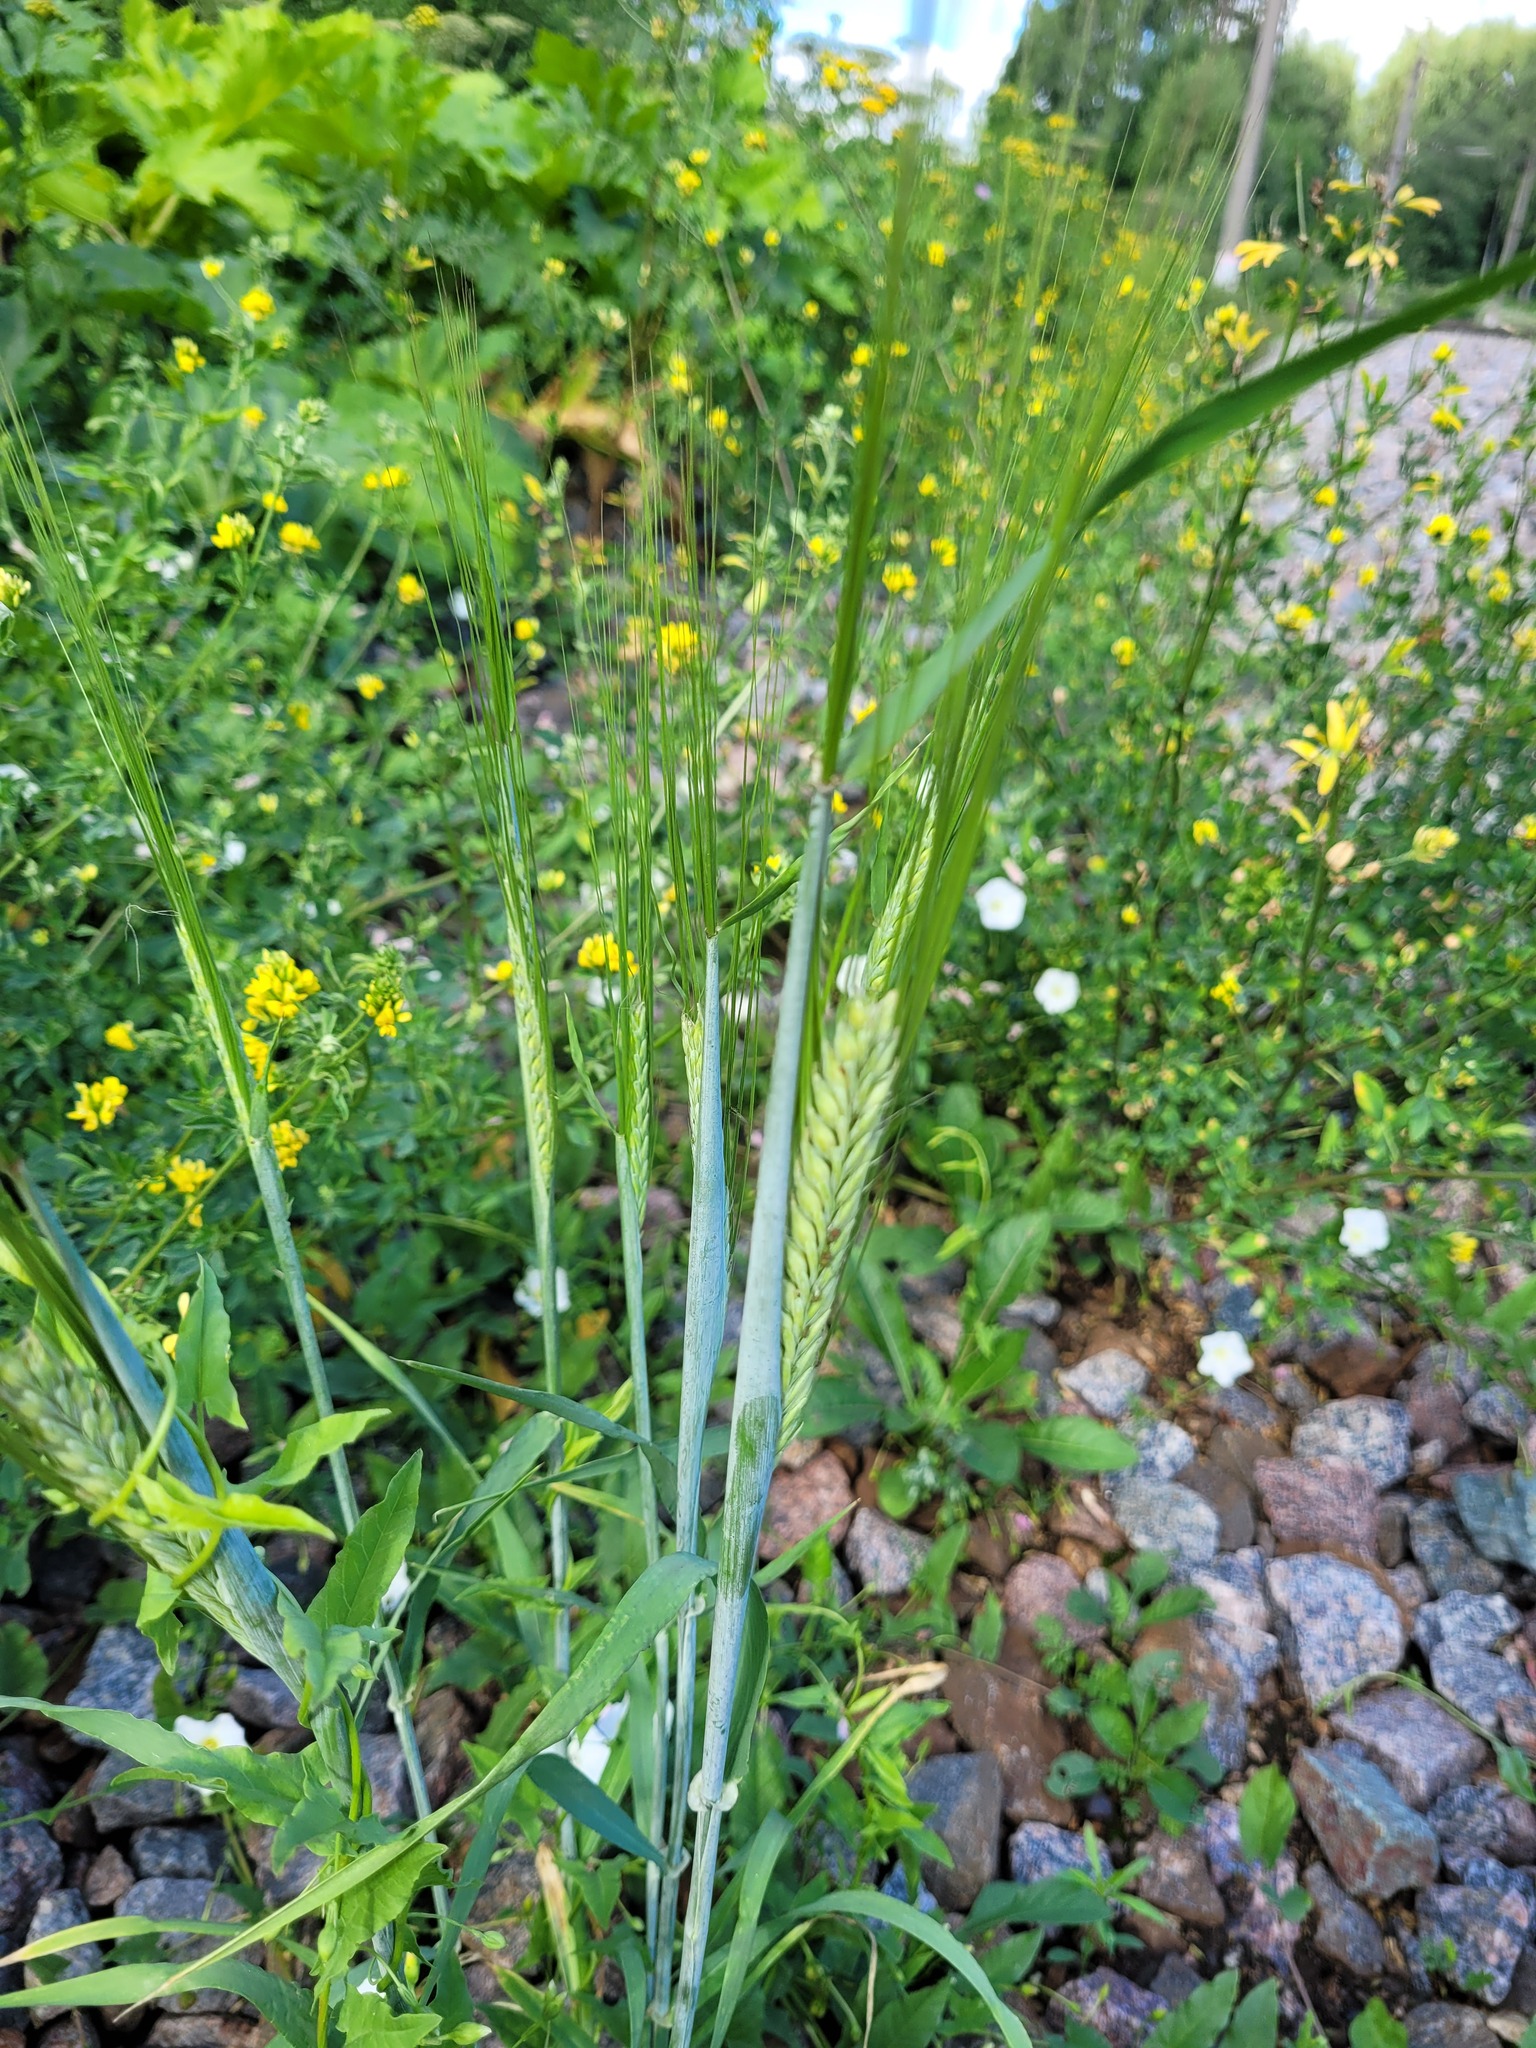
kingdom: Plantae
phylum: Tracheophyta
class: Liliopsida
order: Poales
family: Poaceae
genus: Hordeum
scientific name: Hordeum vulgare
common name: Common barley
